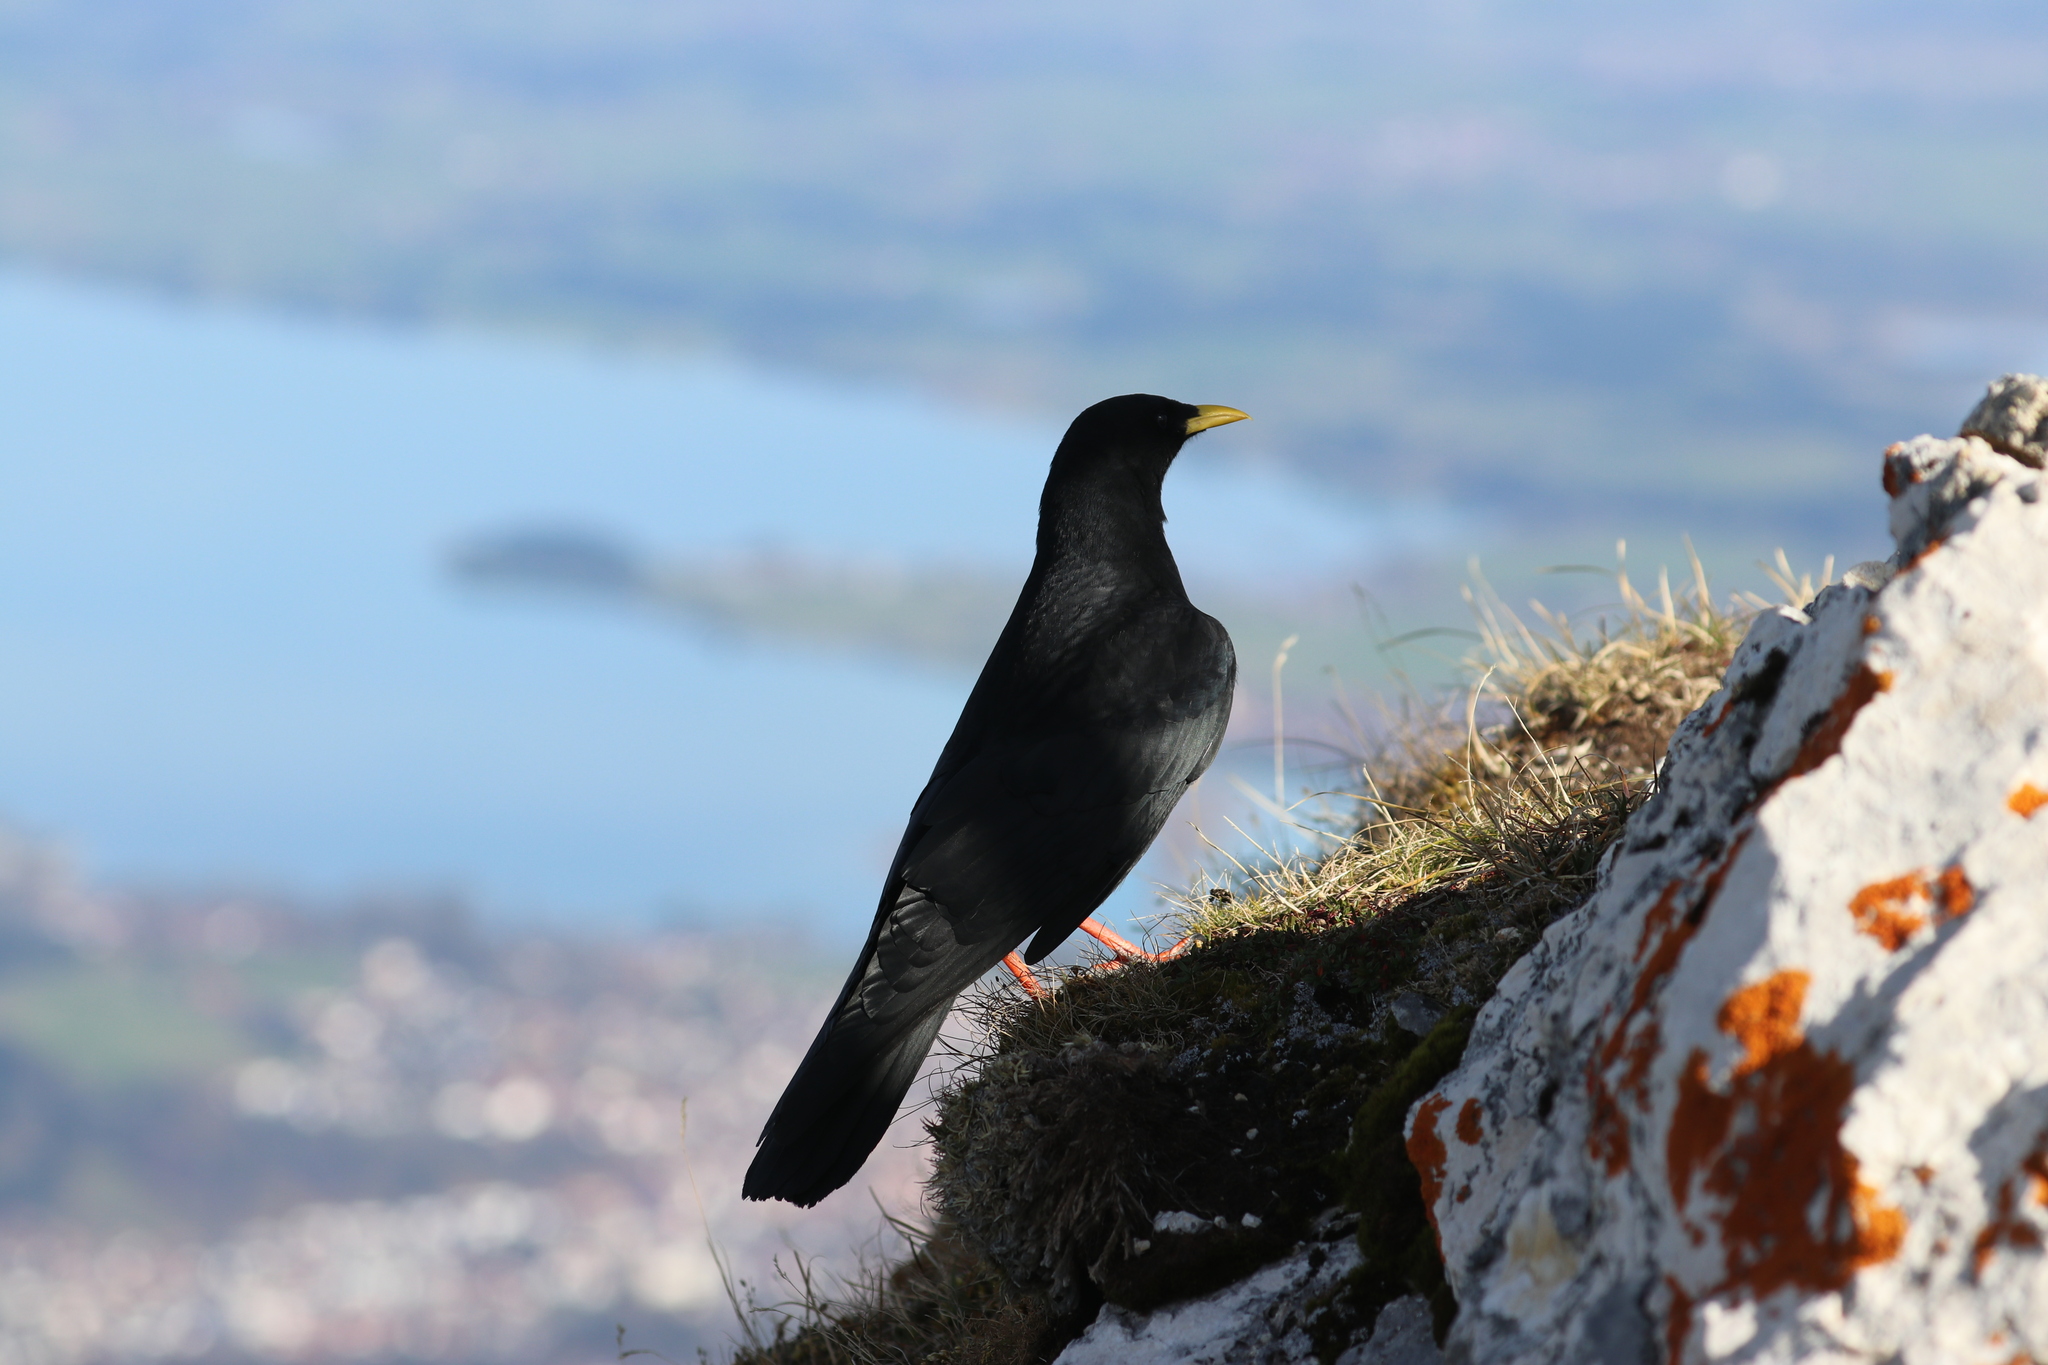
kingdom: Animalia
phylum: Chordata
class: Aves
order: Passeriformes
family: Corvidae
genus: Pyrrhocorax
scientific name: Pyrrhocorax graculus
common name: Alpine chough
